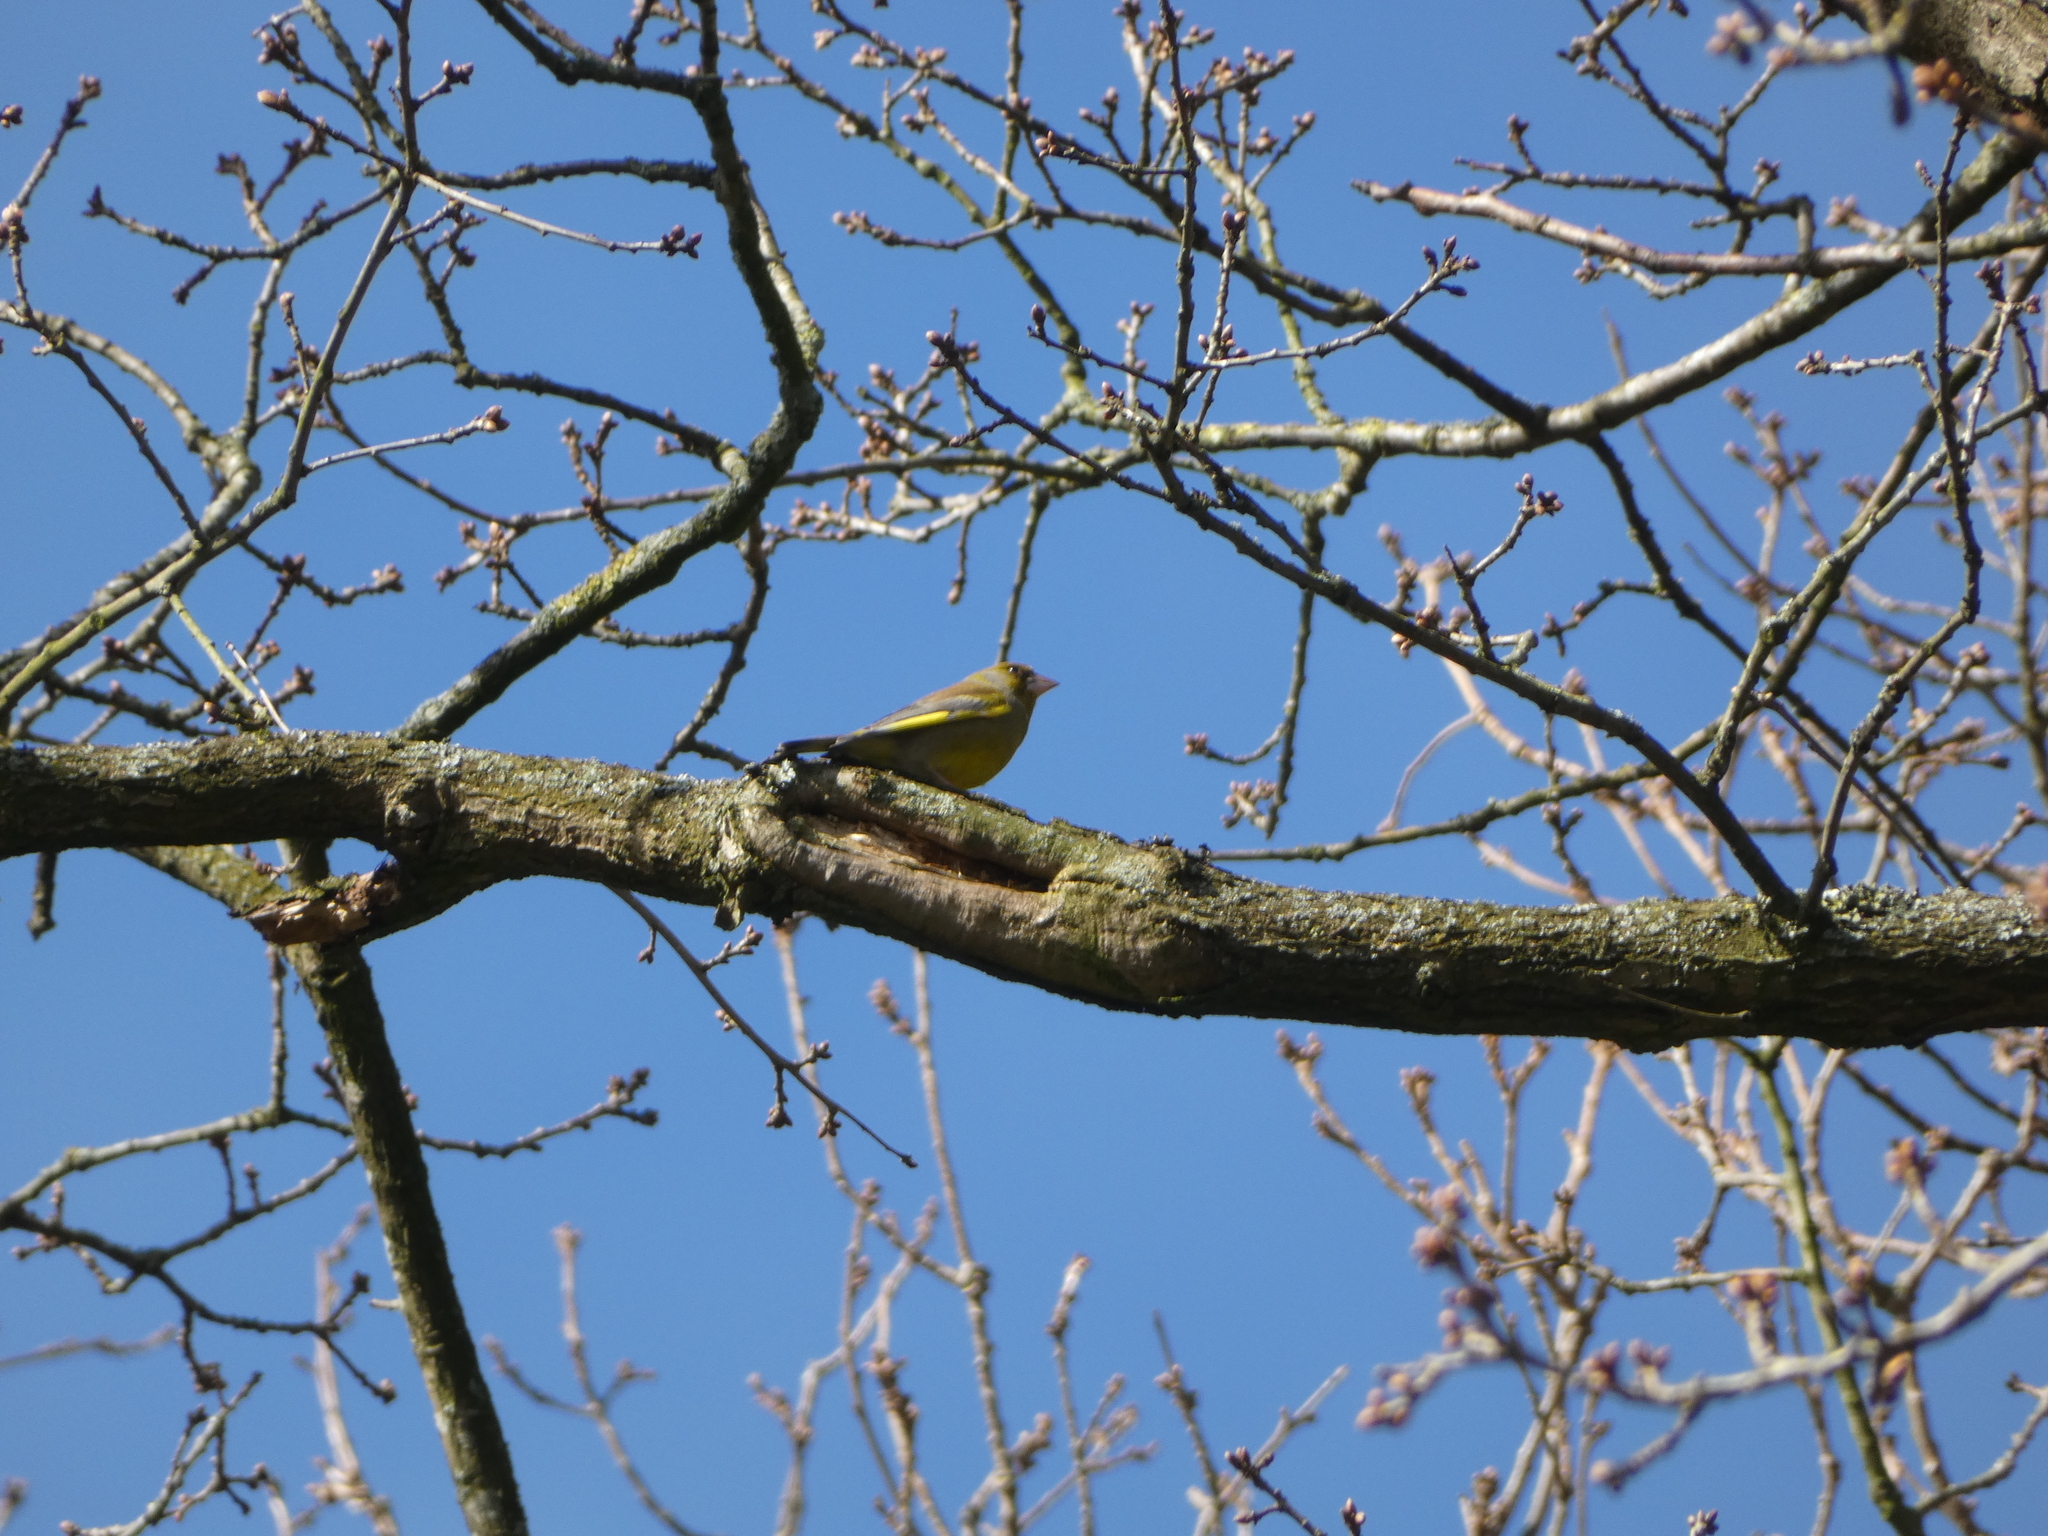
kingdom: Plantae
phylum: Tracheophyta
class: Liliopsida
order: Poales
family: Poaceae
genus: Chloris
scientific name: Chloris chloris
